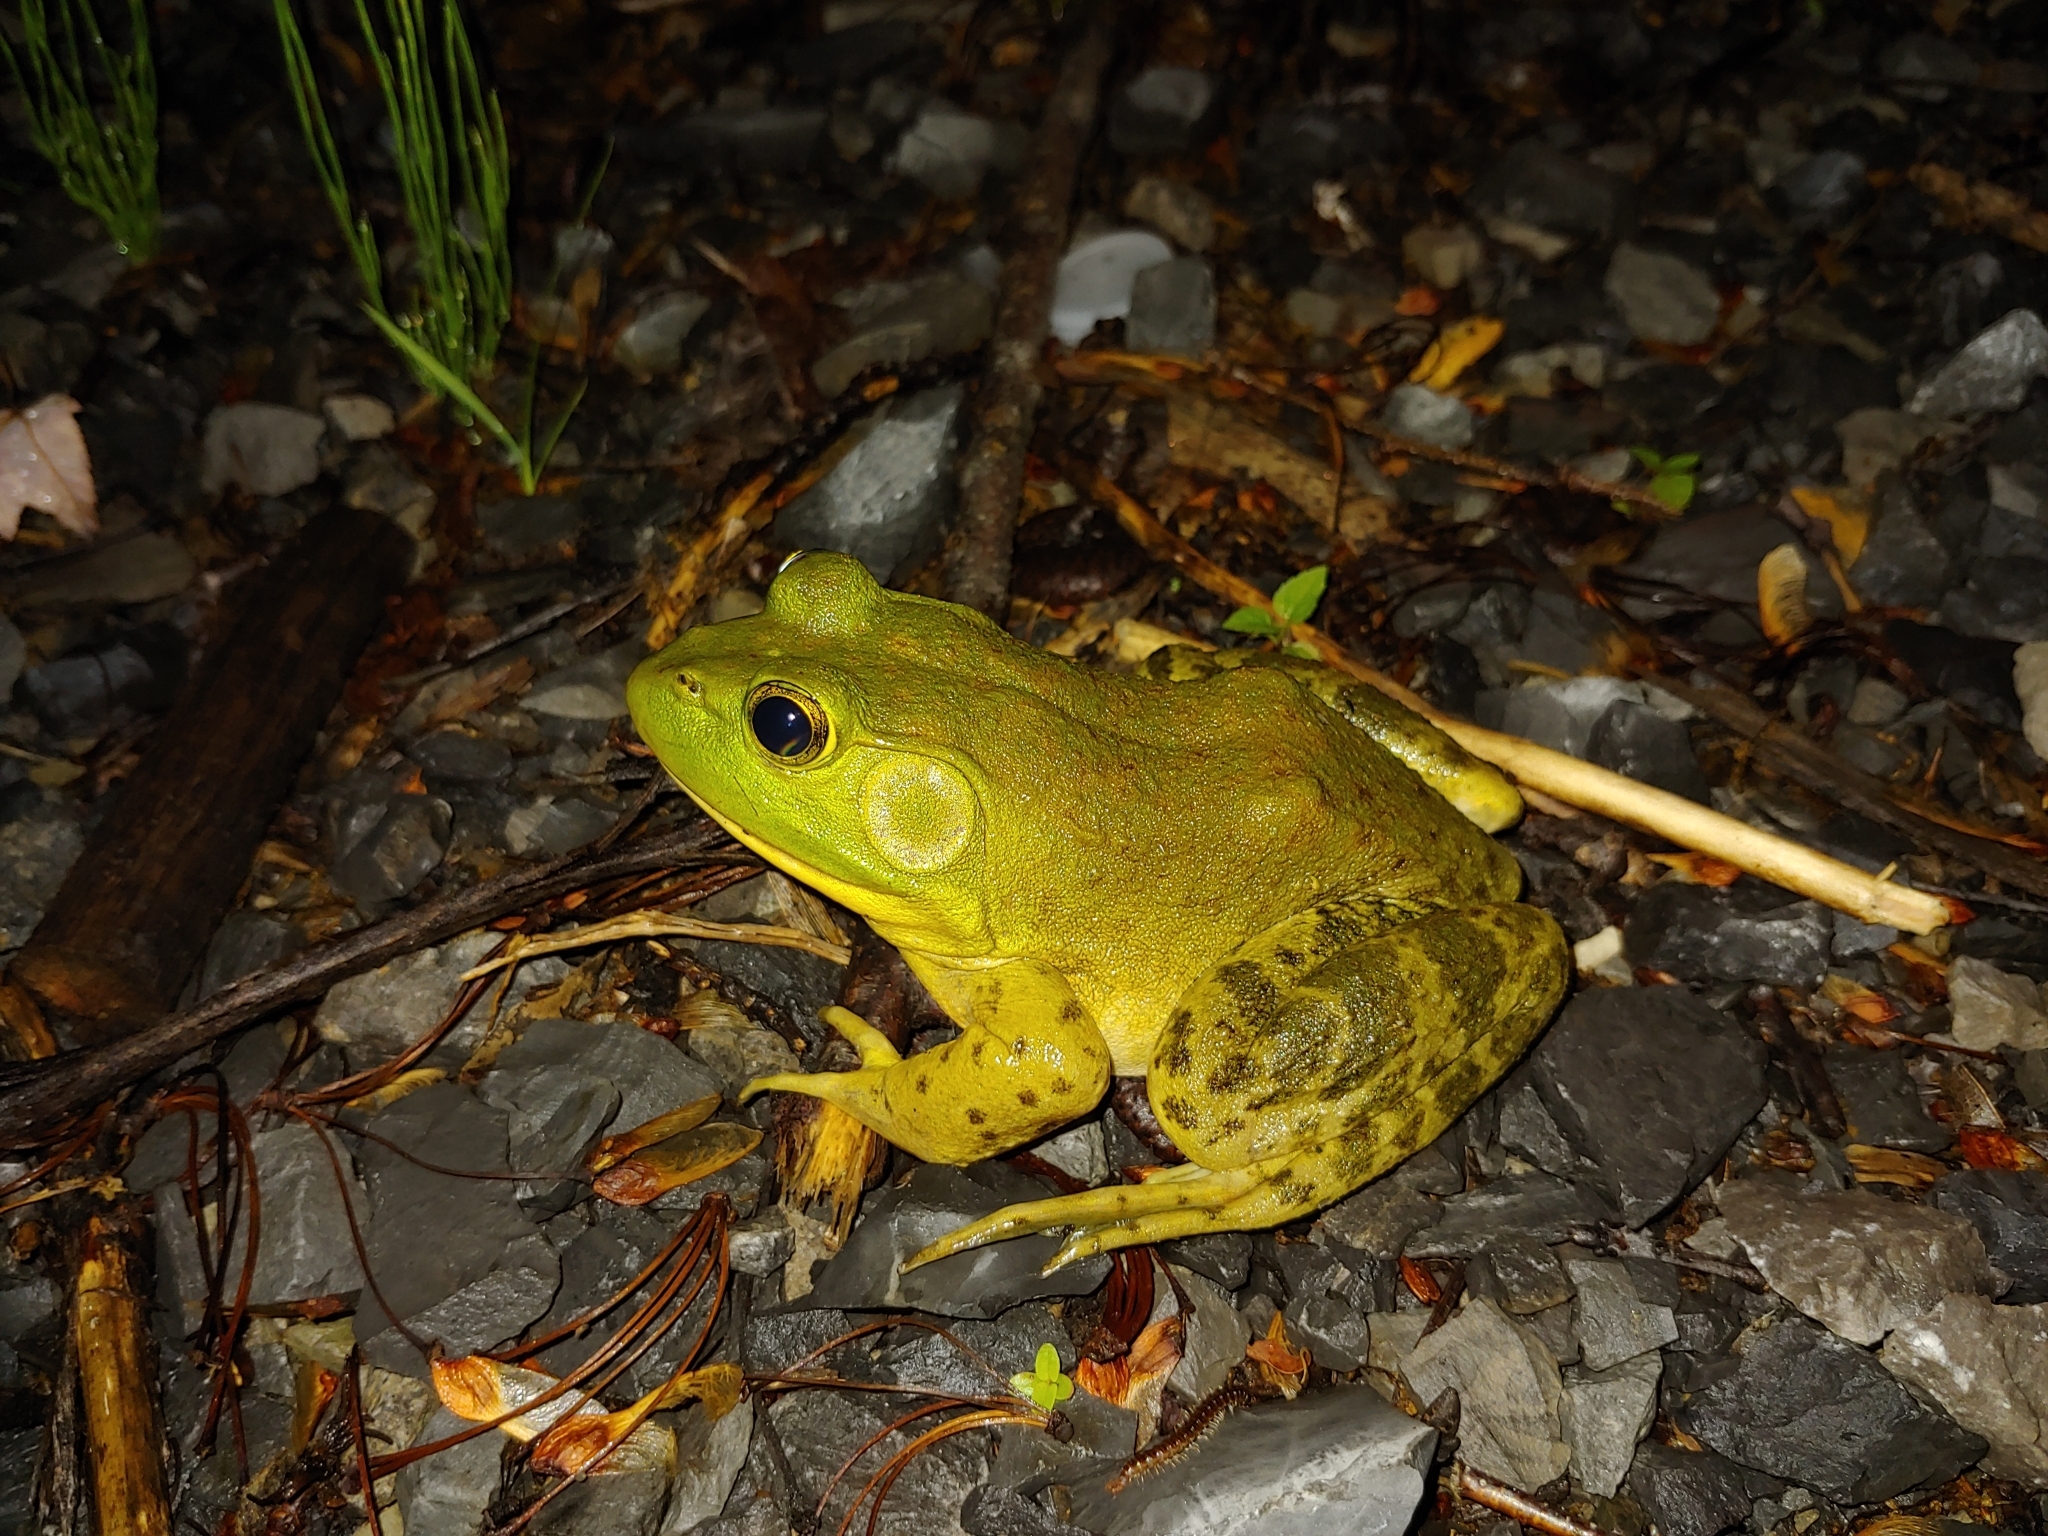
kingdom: Animalia
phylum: Chordata
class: Amphibia
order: Anura
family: Ranidae
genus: Lithobates
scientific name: Lithobates catesbeianus
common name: American bullfrog
